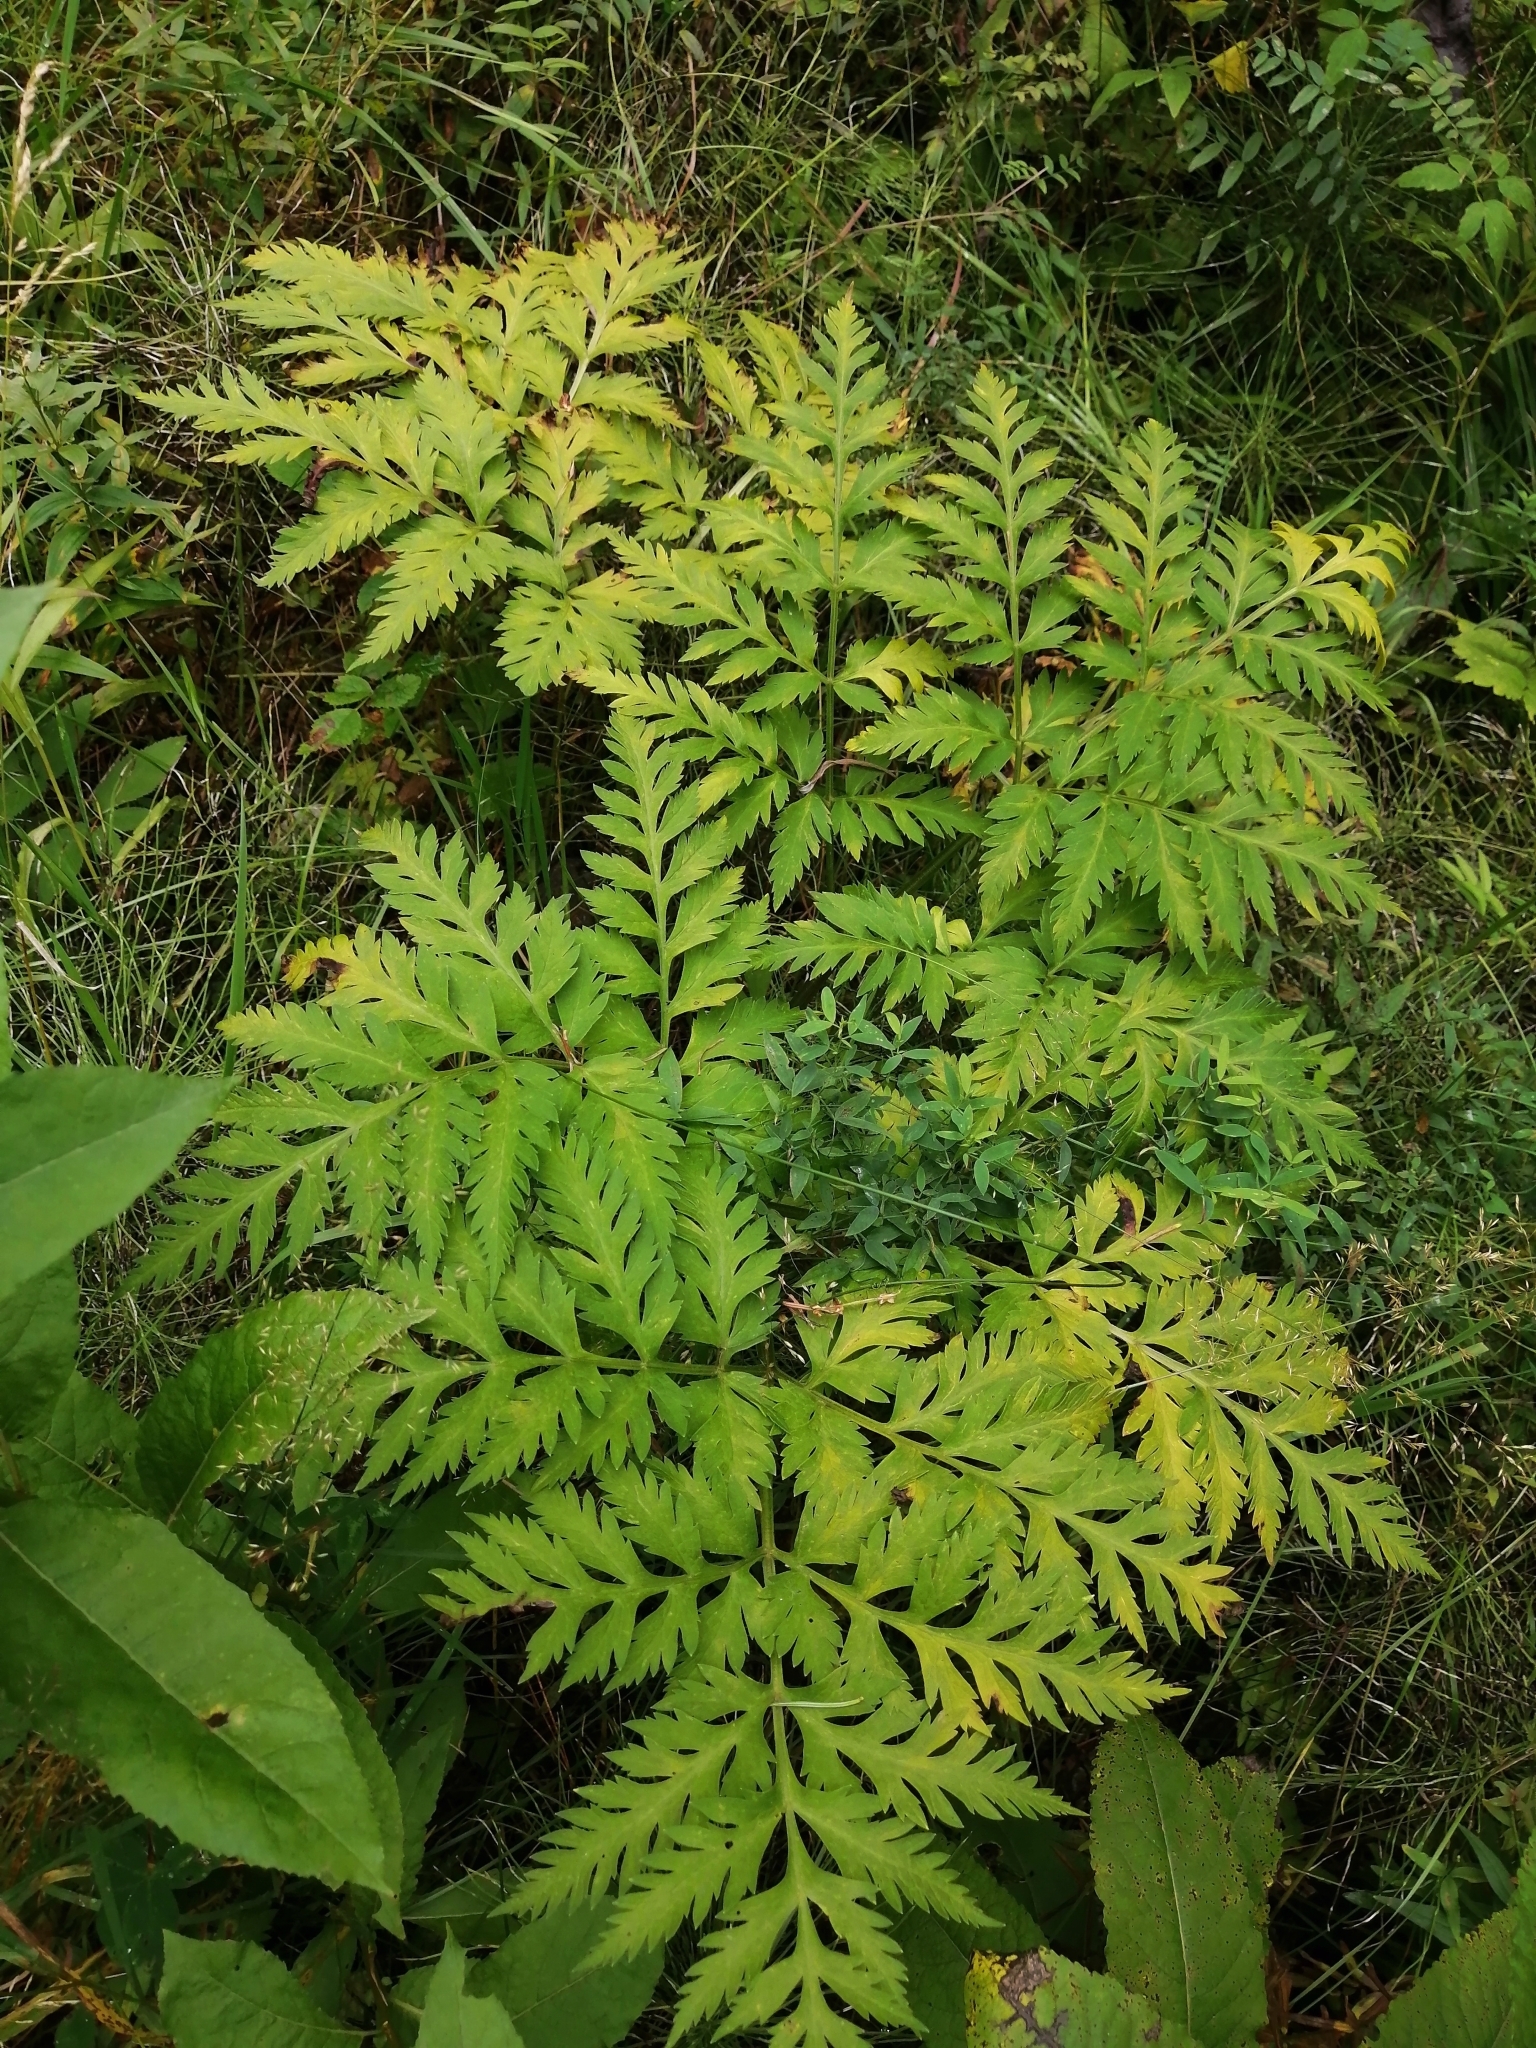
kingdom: Plantae
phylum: Tracheophyta
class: Magnoliopsida
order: Apiales
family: Apiaceae
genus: Pleurospermum
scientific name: Pleurospermum uralense
